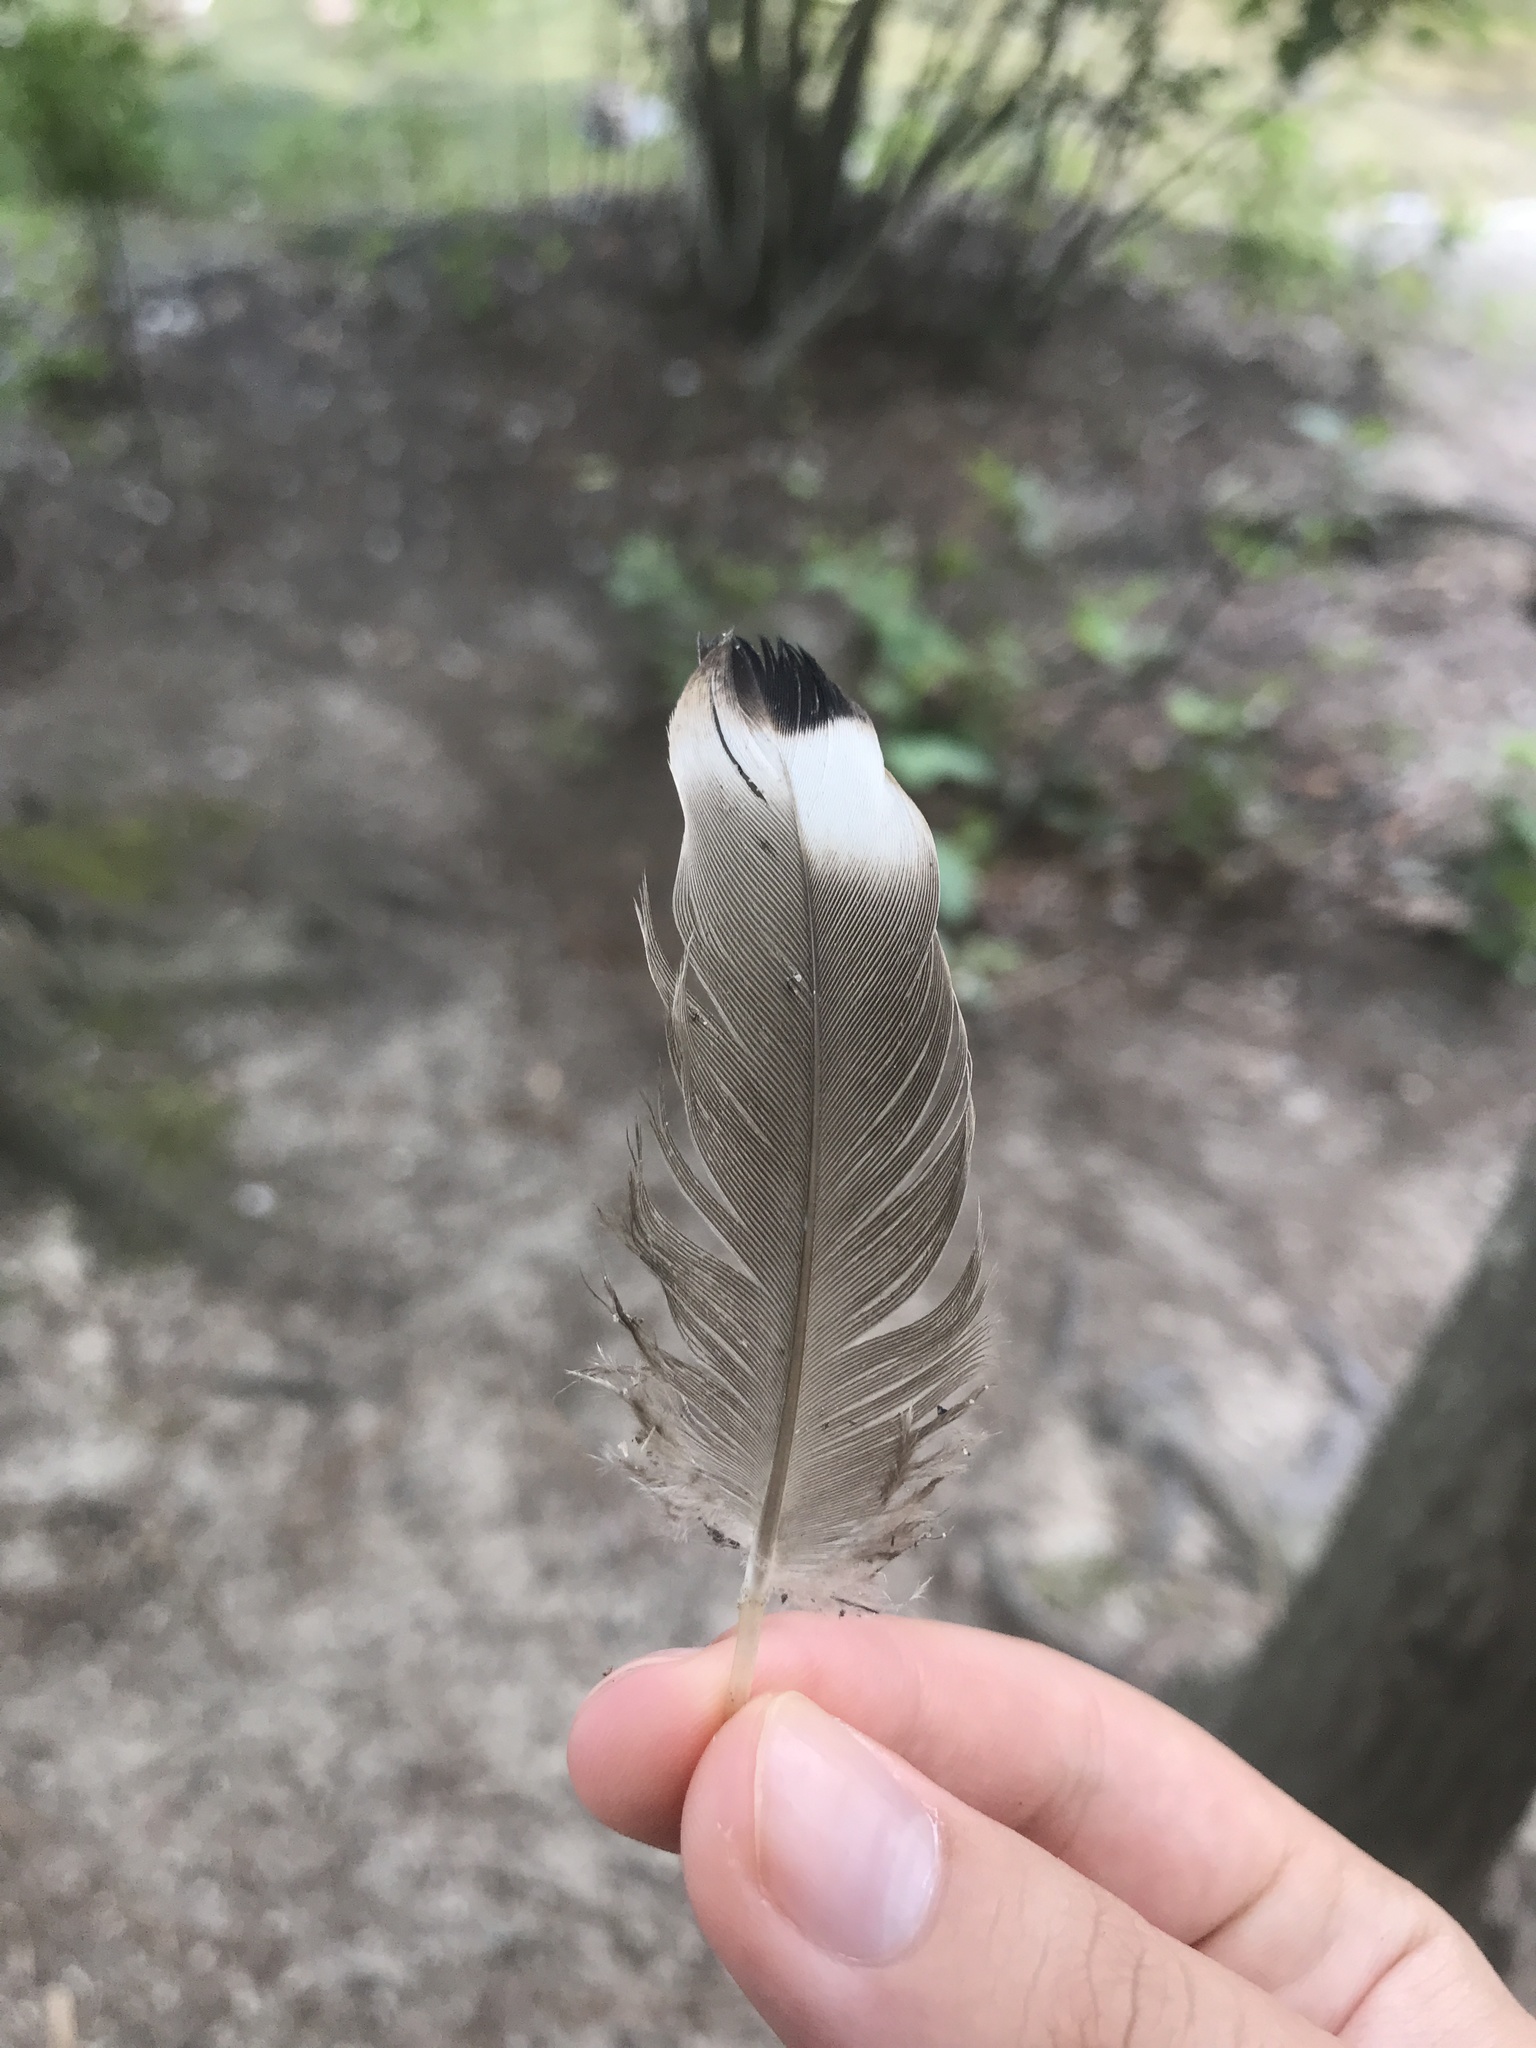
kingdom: Animalia
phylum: Chordata
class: Aves
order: Anseriformes
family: Anatidae
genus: Anas
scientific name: Anas platyrhynchos
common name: Mallard
